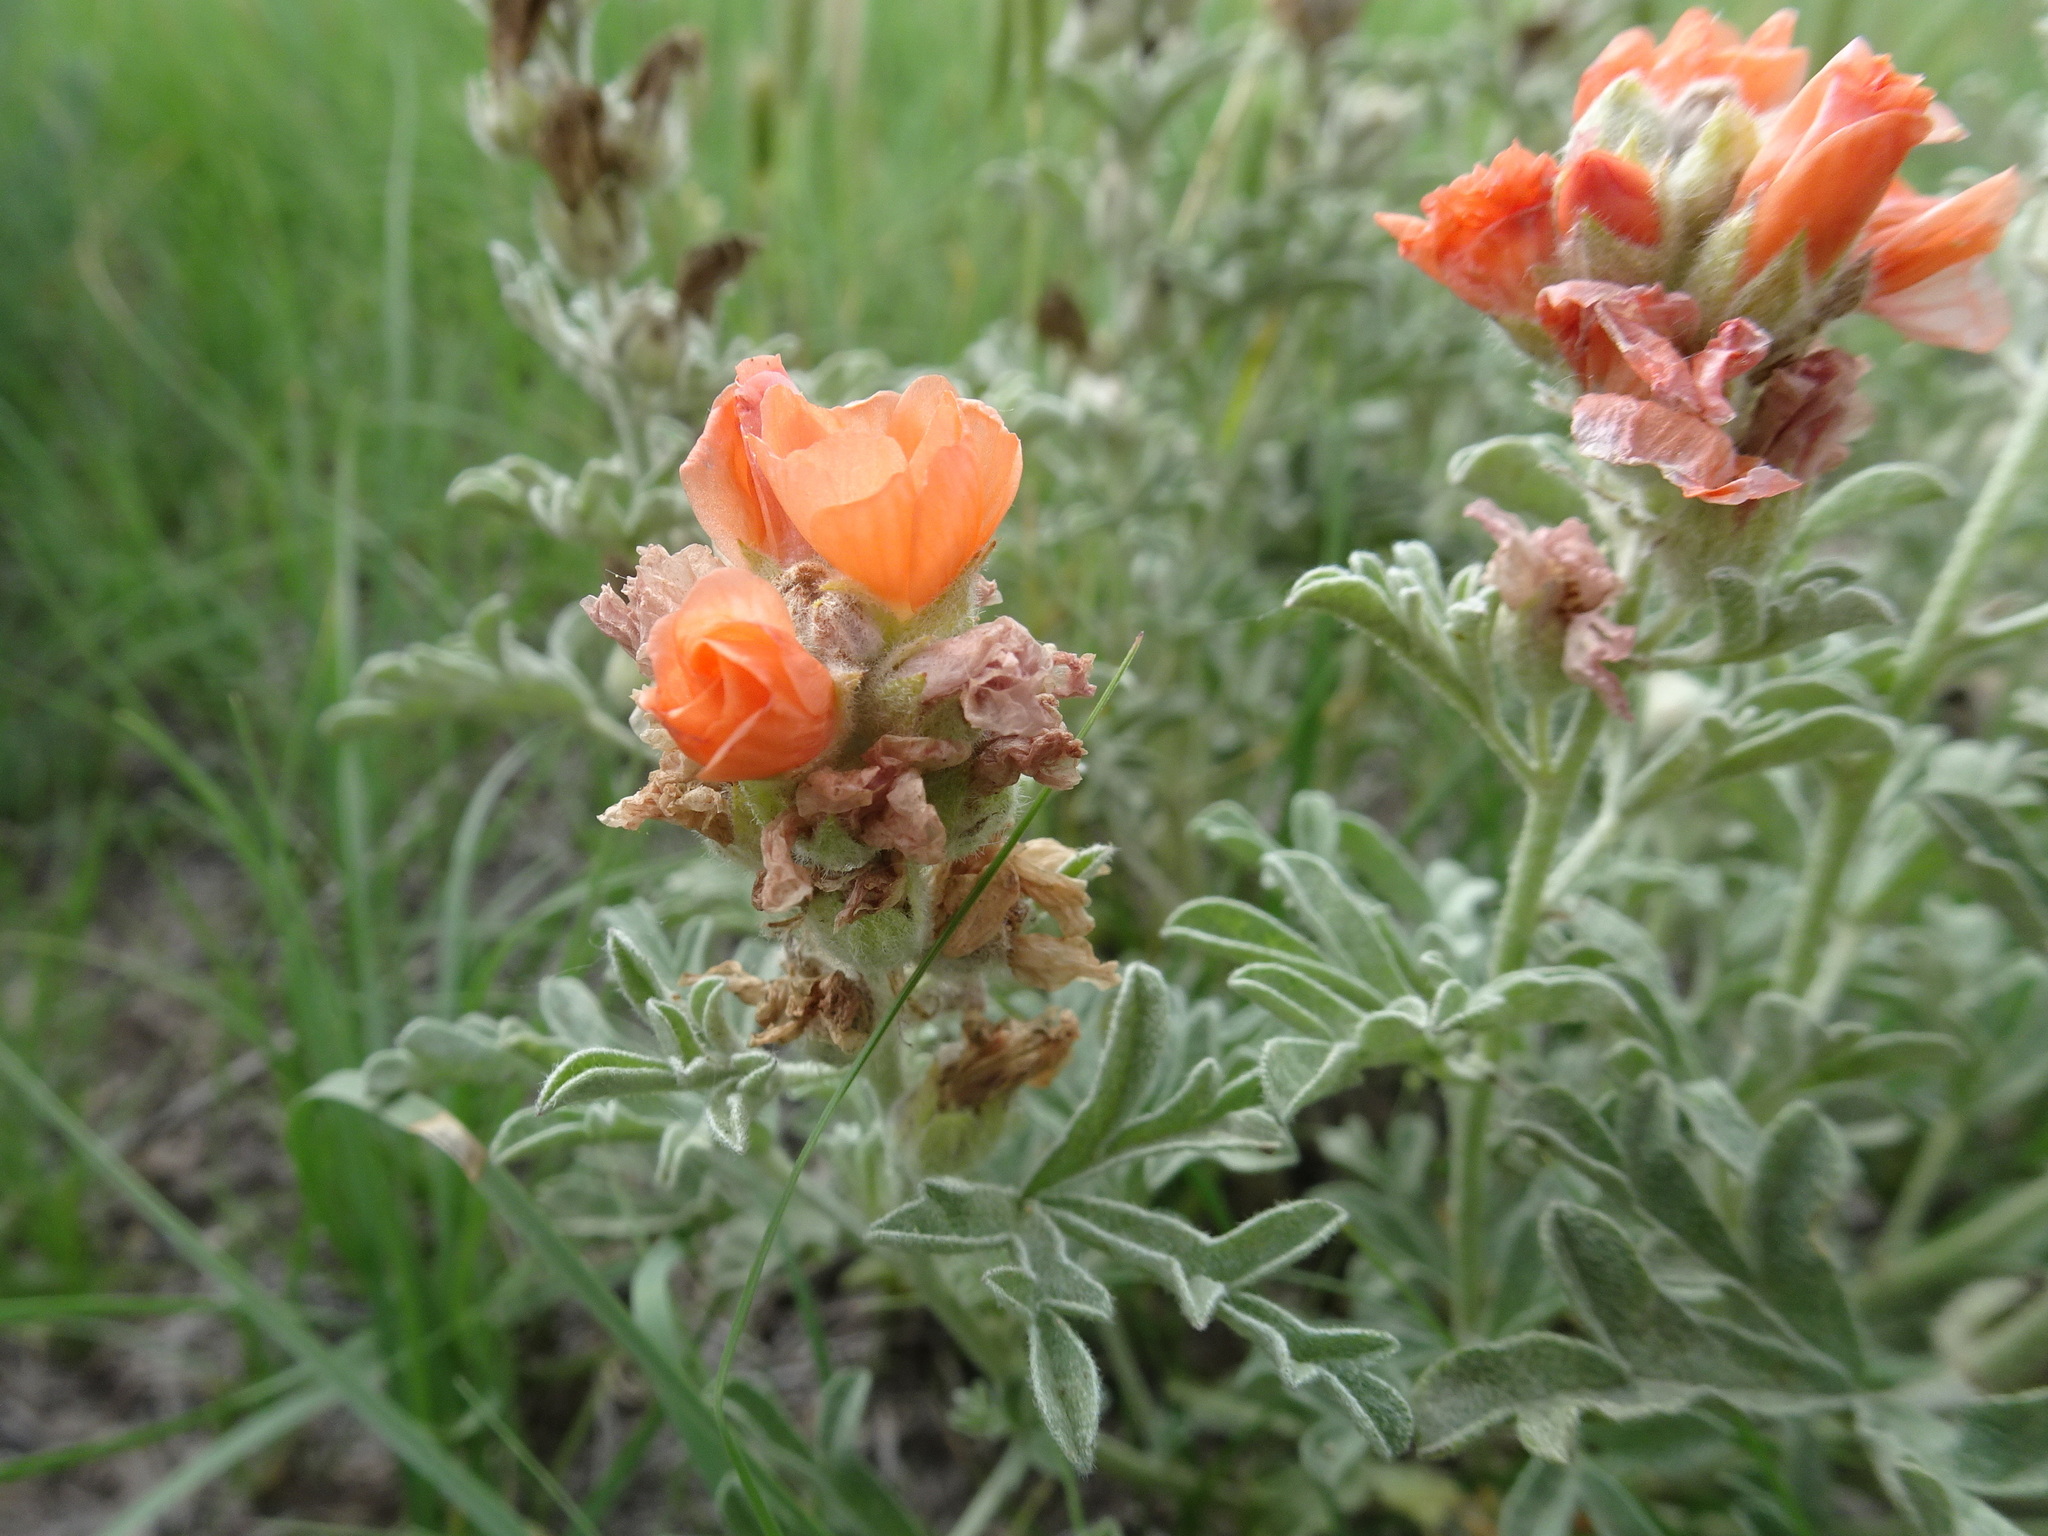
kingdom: Plantae
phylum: Tracheophyta
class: Magnoliopsida
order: Malvales
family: Malvaceae
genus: Sphaeralcea
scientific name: Sphaeralcea coccinea
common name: Moss-rose
